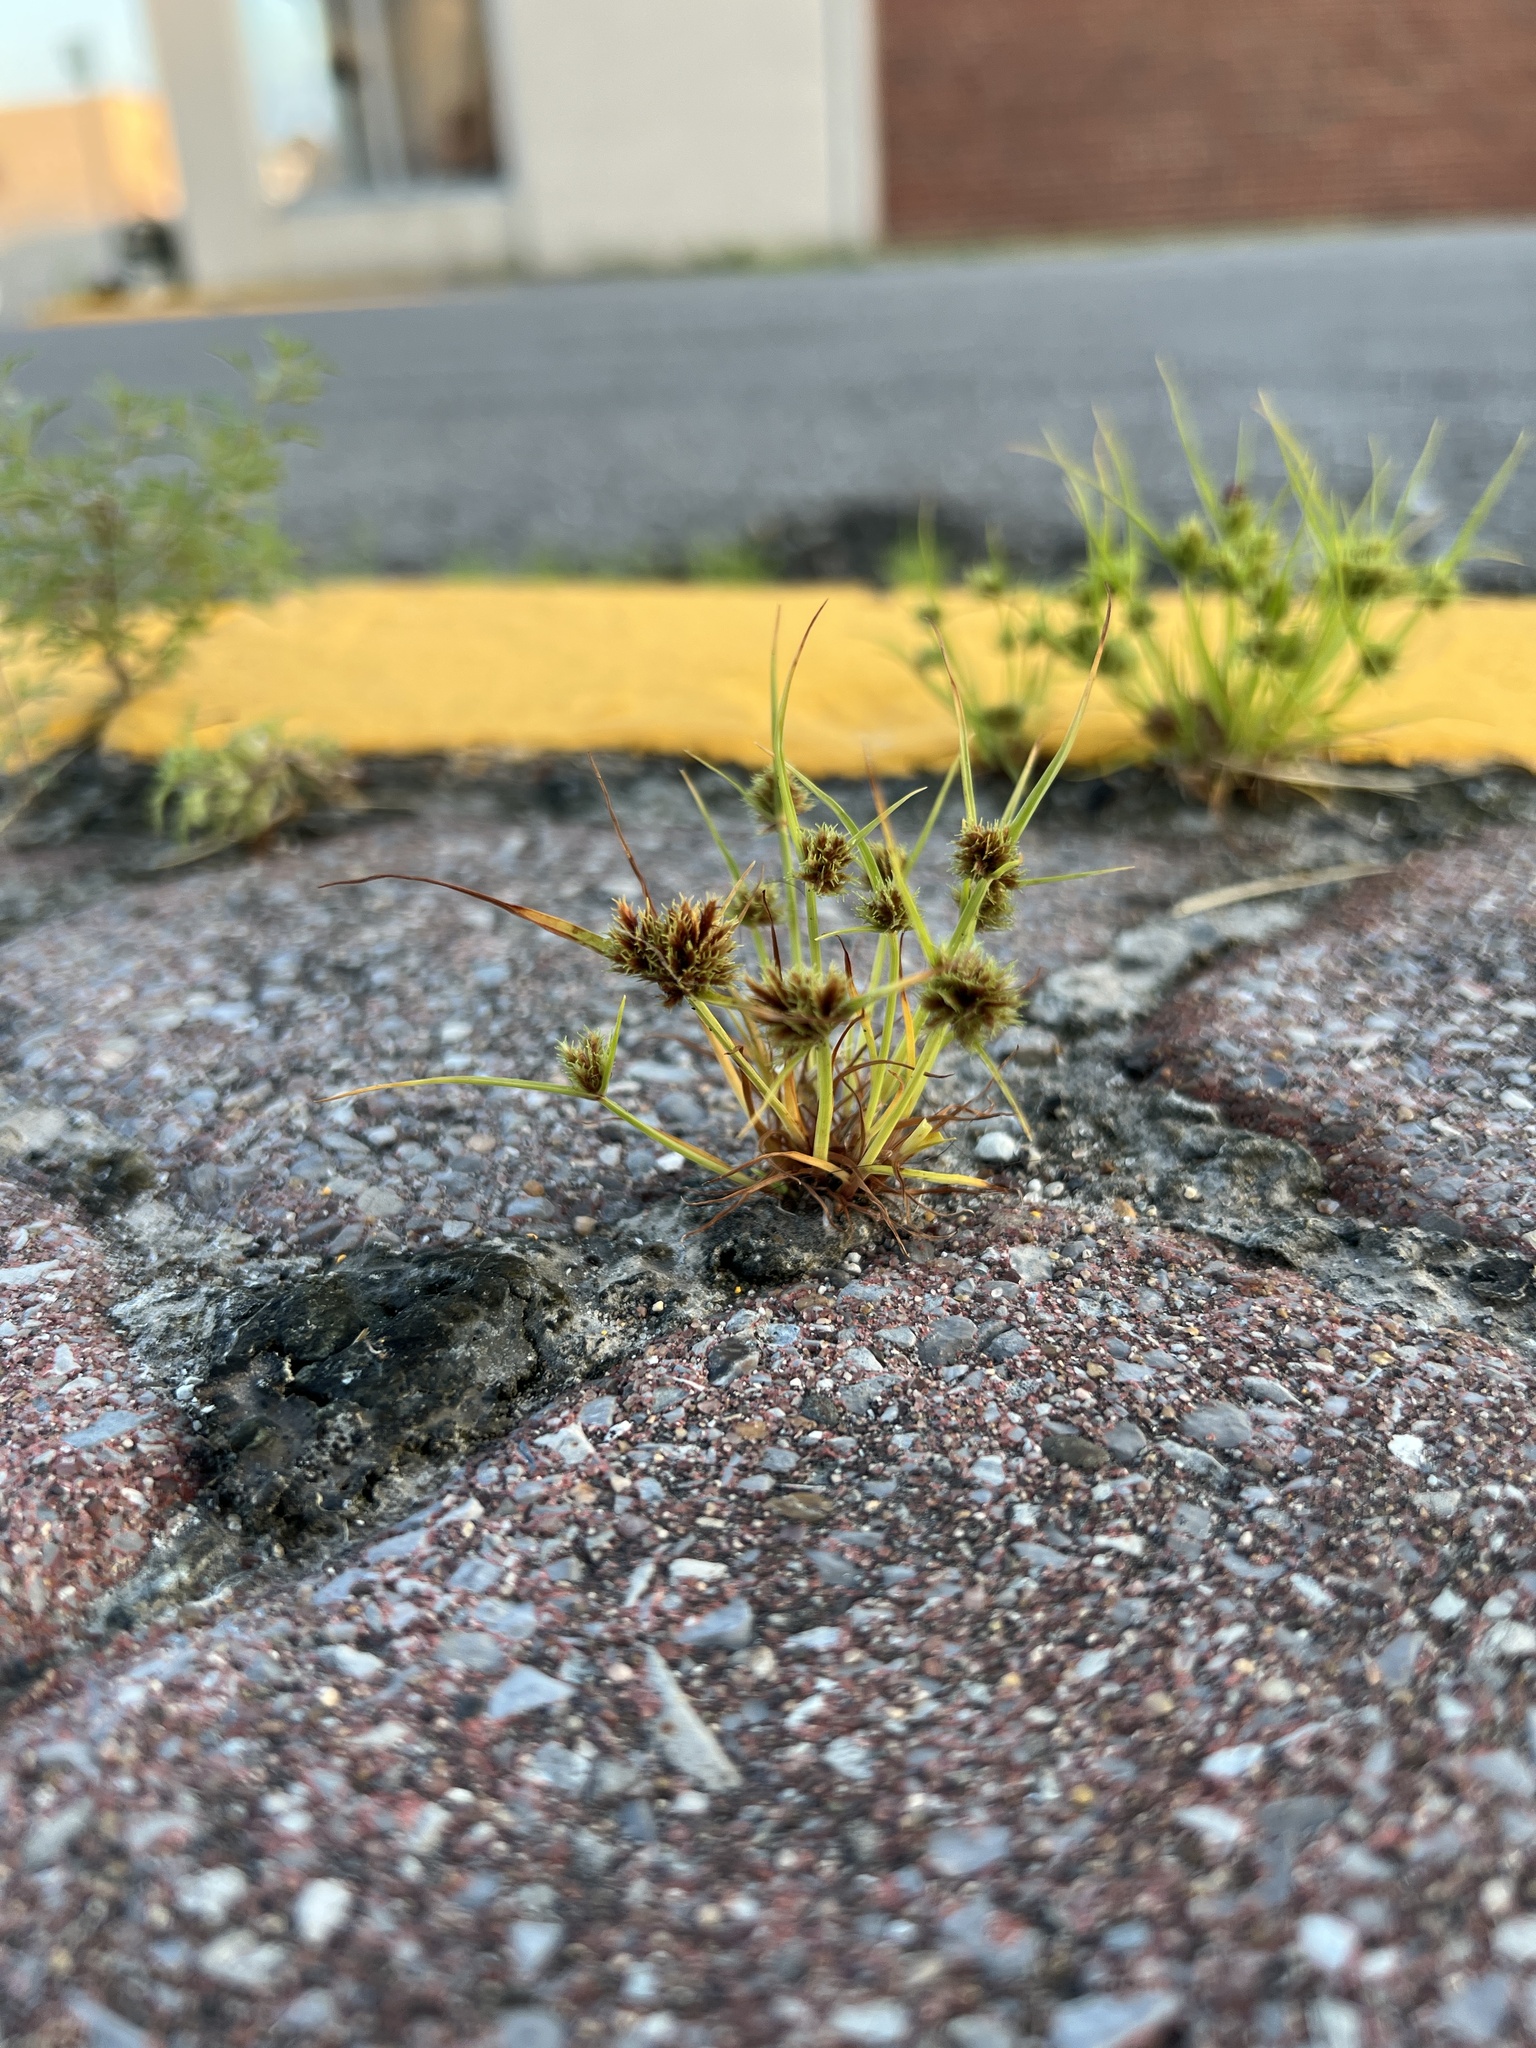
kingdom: Plantae
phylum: Tracheophyta
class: Liliopsida
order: Poales
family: Cyperaceae
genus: Cyperus
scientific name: Cyperus squarrosus
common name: Awned cyperus
